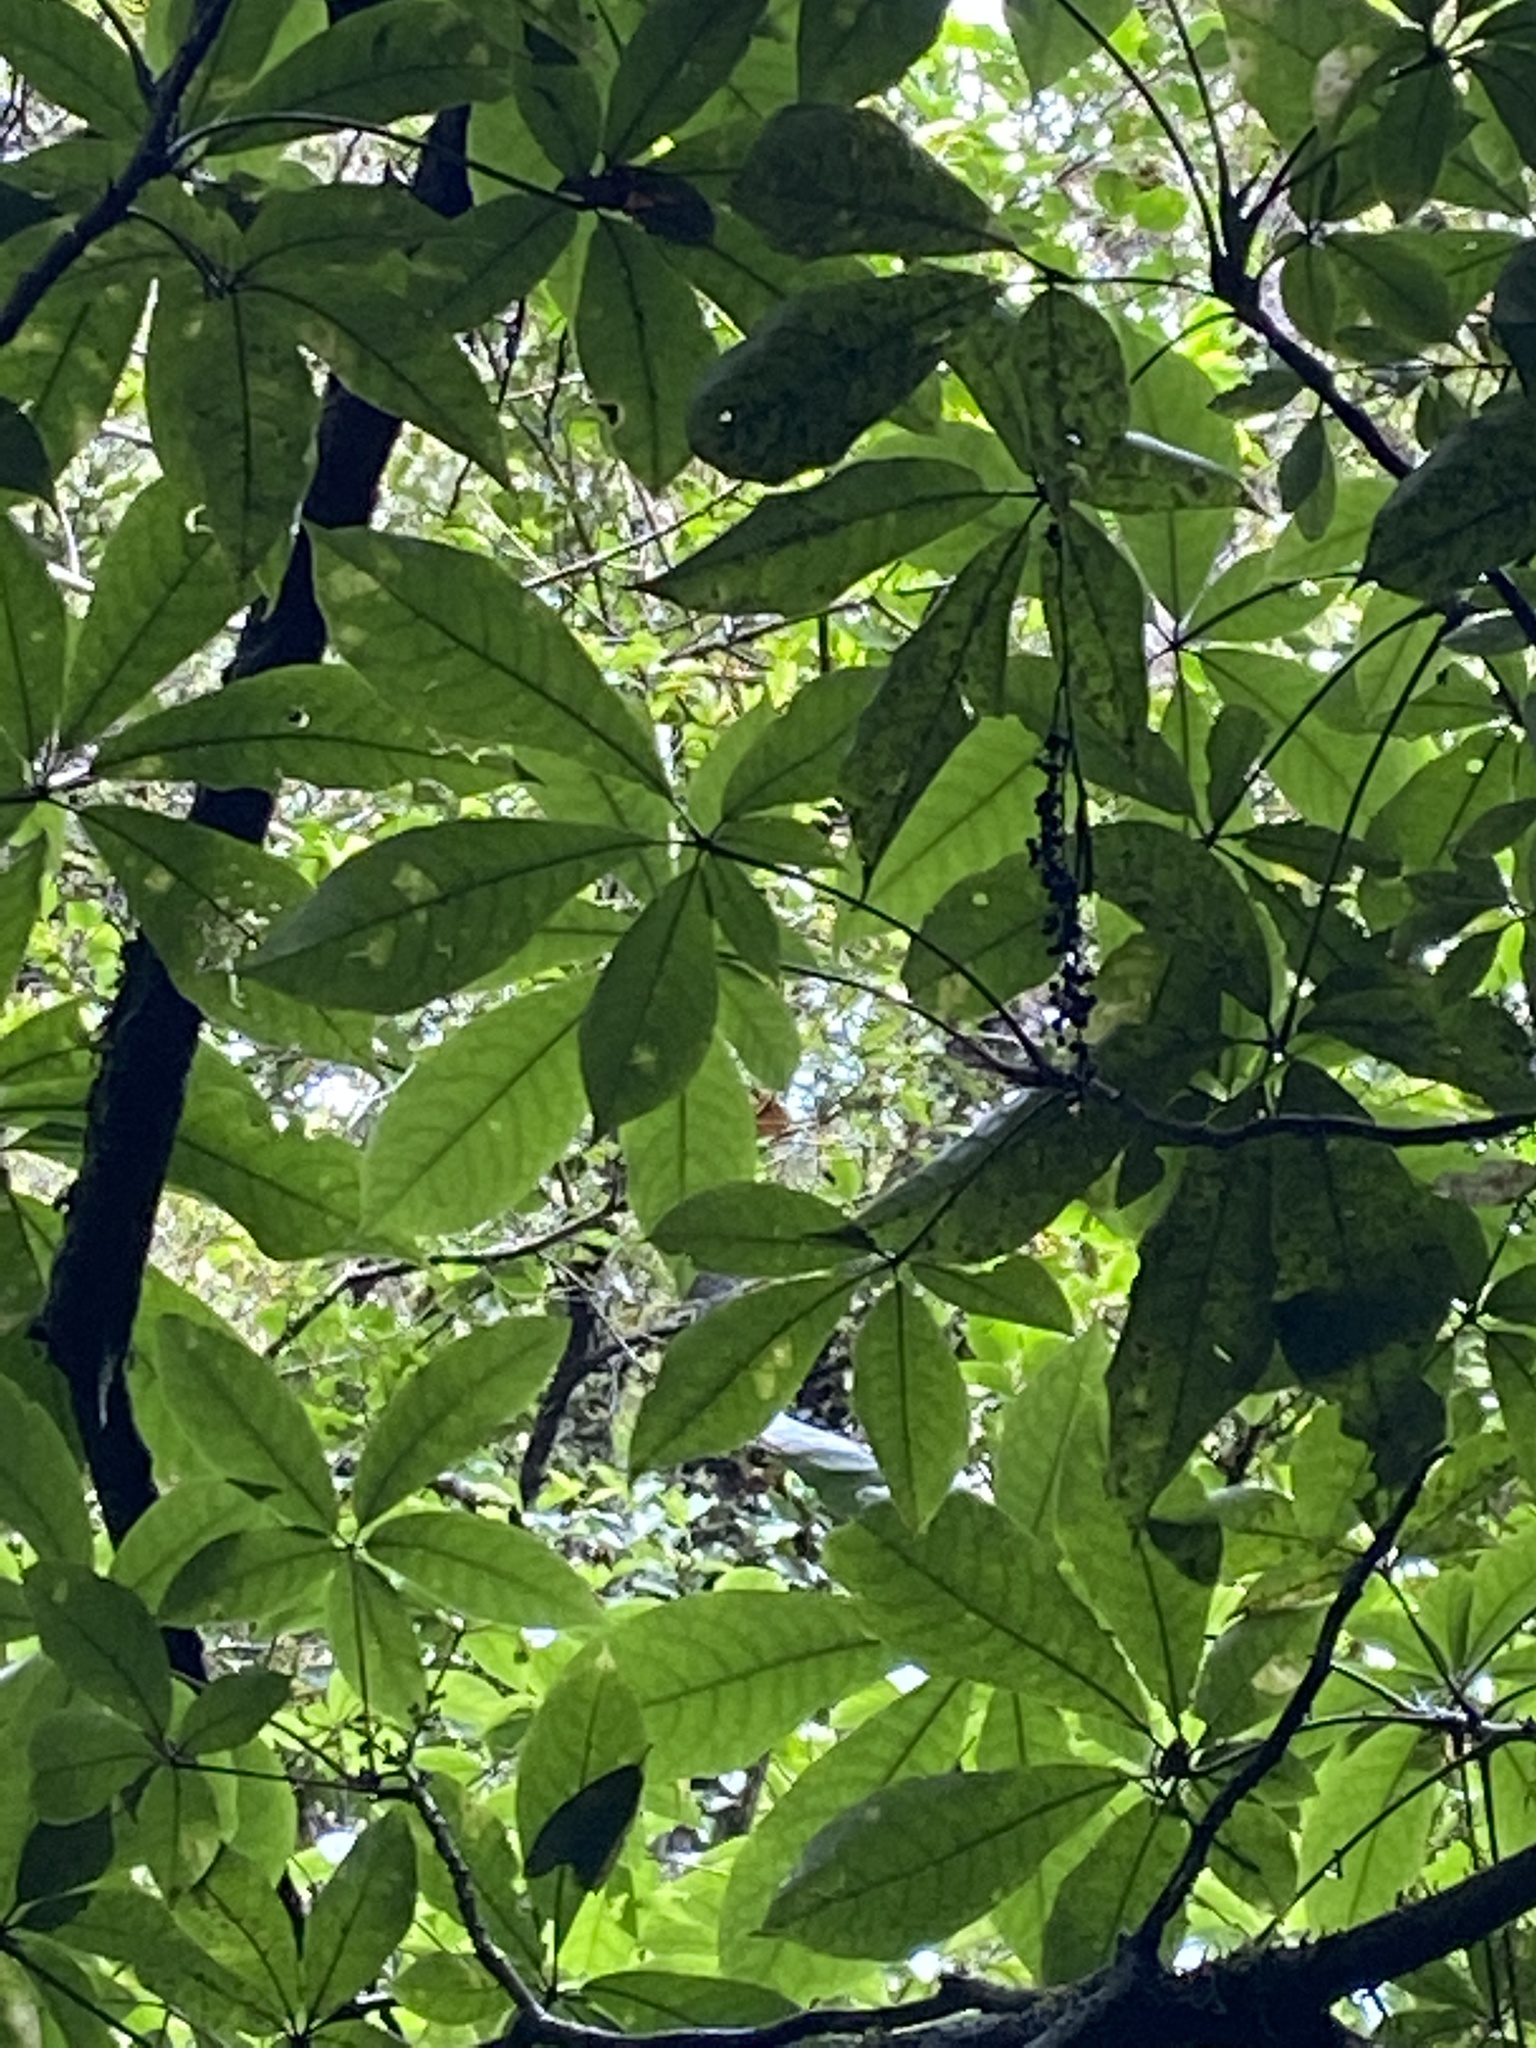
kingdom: Plantae
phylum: Tracheophyta
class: Magnoliopsida
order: Apiales
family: Araliaceae
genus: Schefflera
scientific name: Schefflera digitata
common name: Pate
